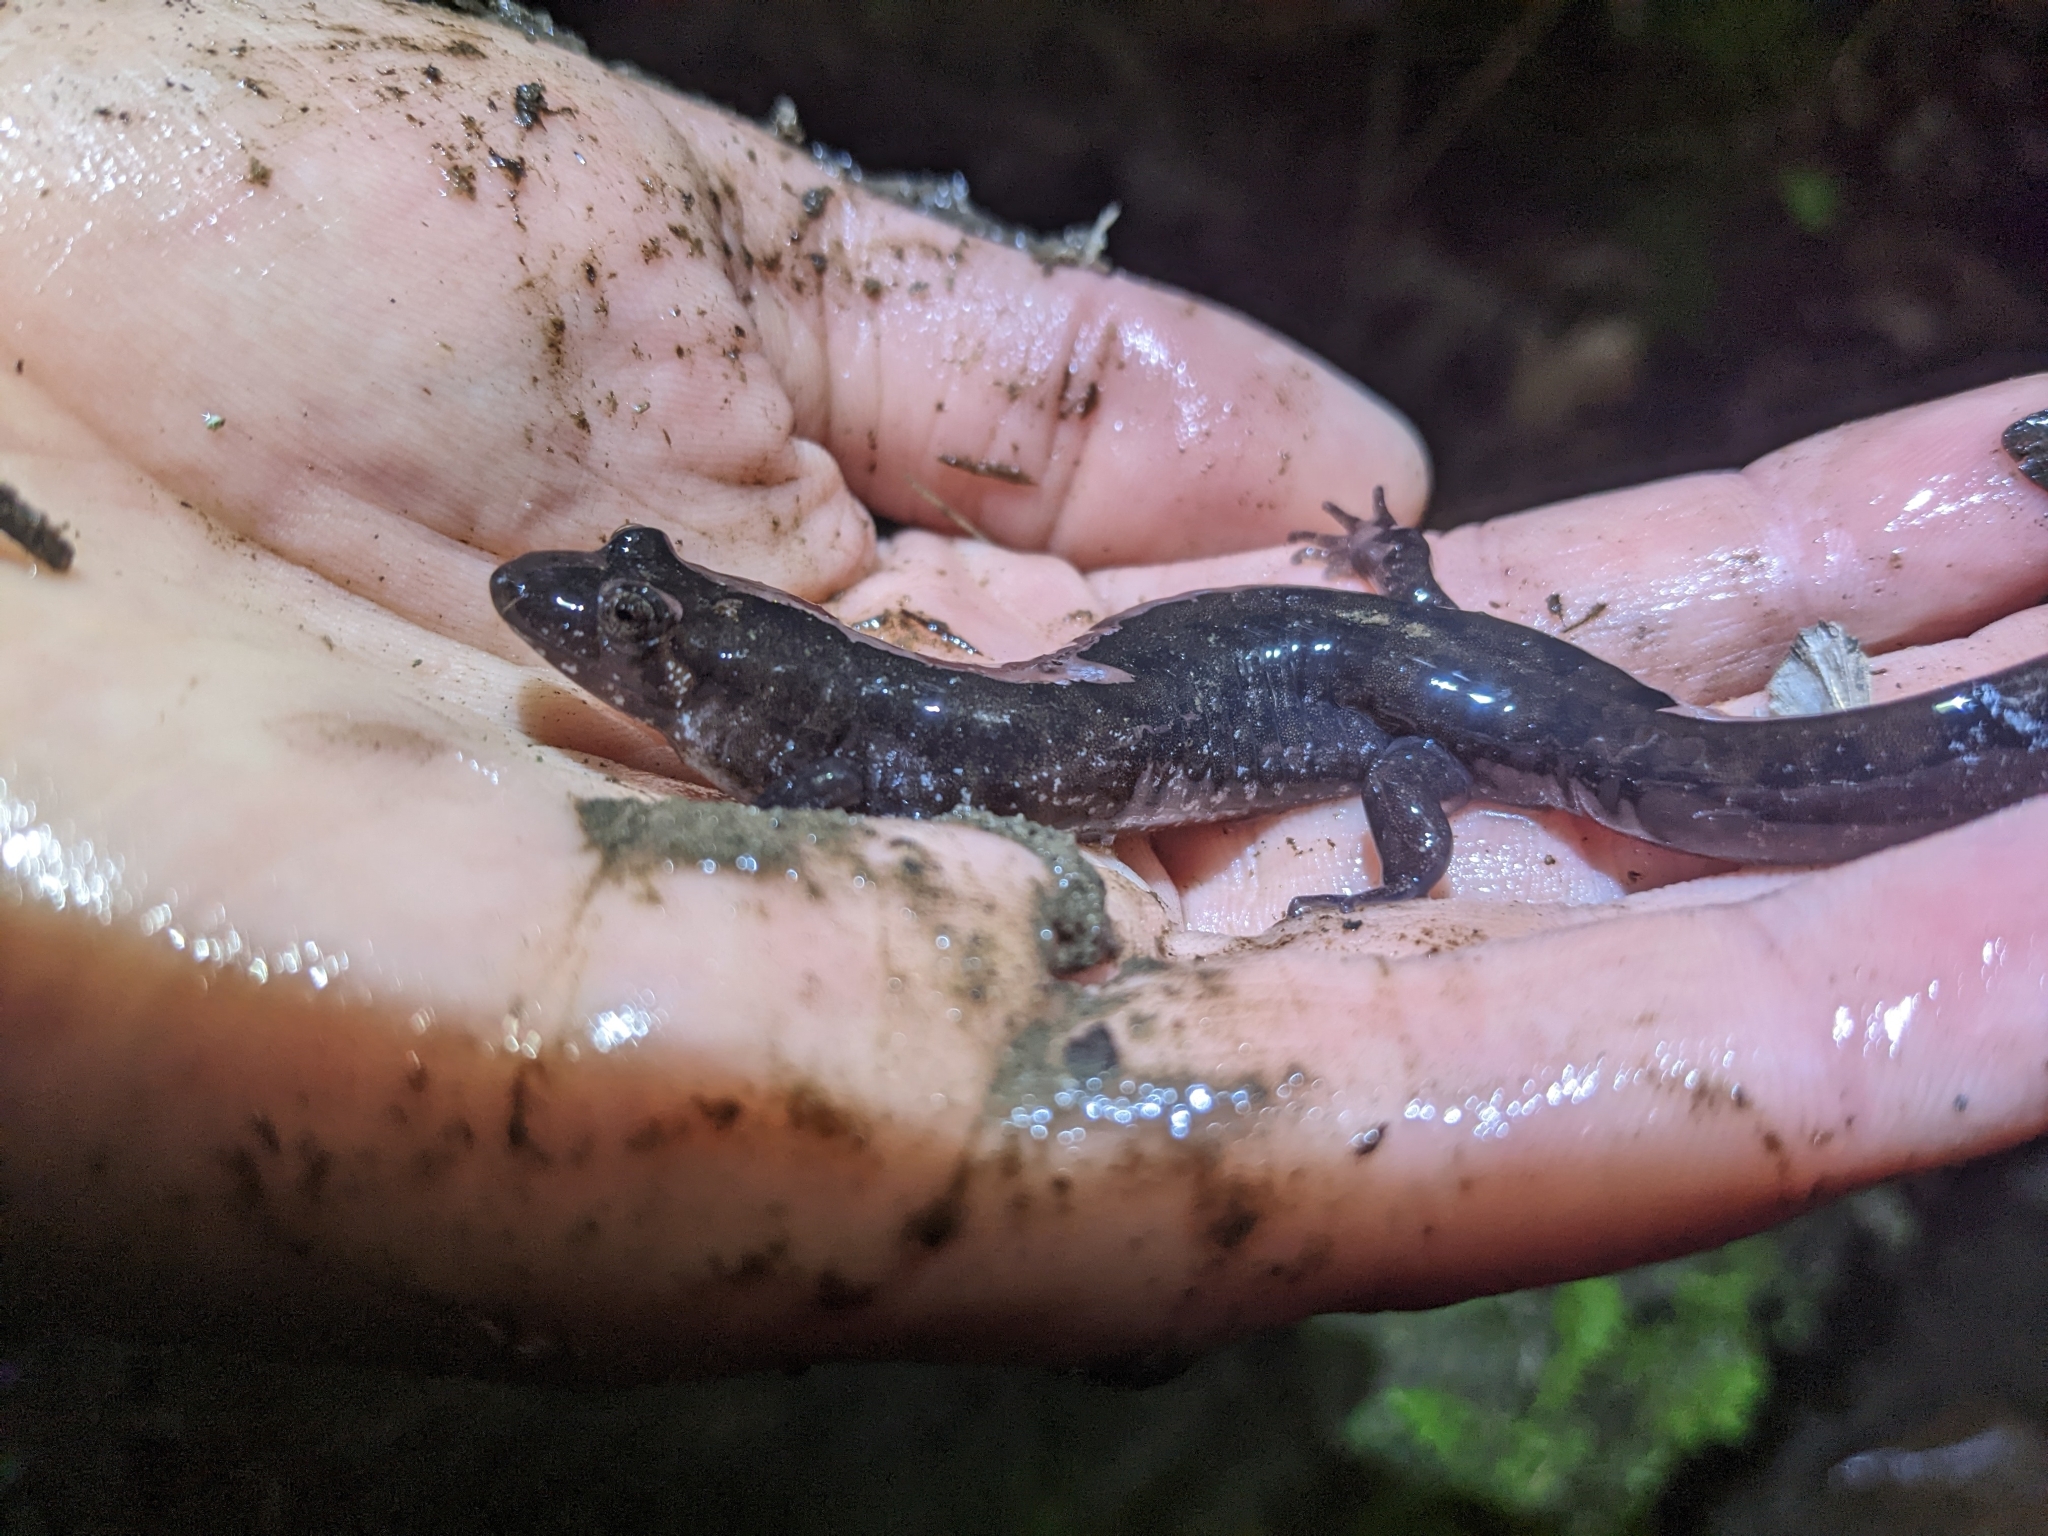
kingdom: Animalia
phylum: Chordata
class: Amphibia
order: Caudata
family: Plethodontidae
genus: Desmognathus
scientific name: Desmognathus monticola
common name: Seal salamander
